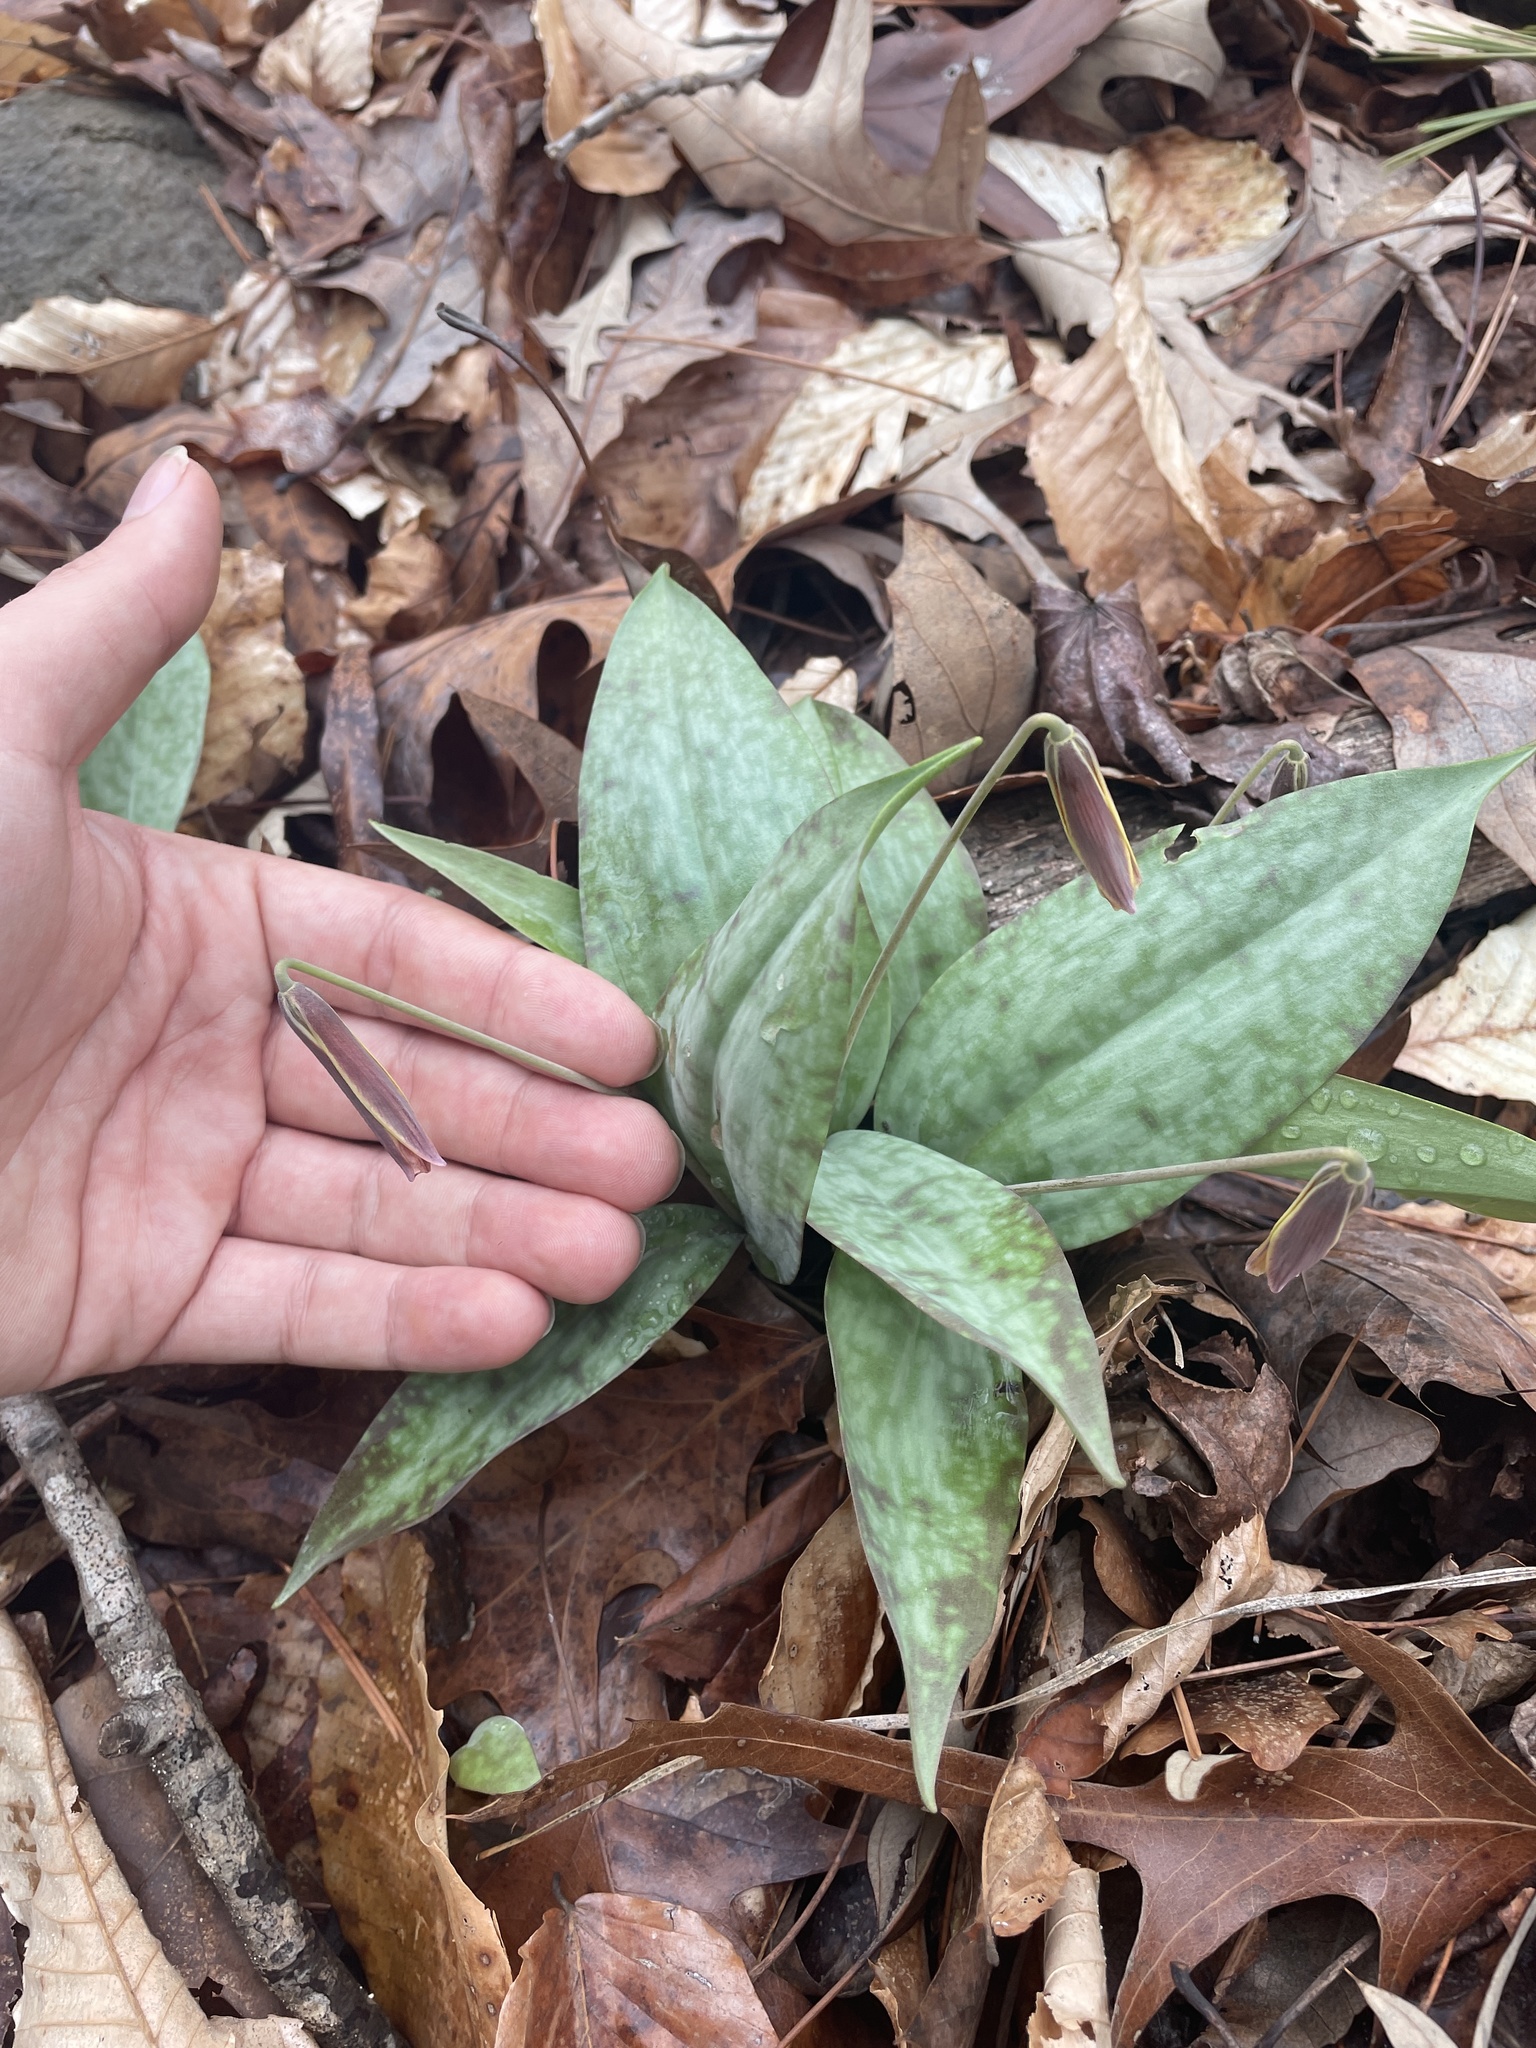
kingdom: Plantae
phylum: Tracheophyta
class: Liliopsida
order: Liliales
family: Liliaceae
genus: Erythronium
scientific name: Erythronium umbilicatum
